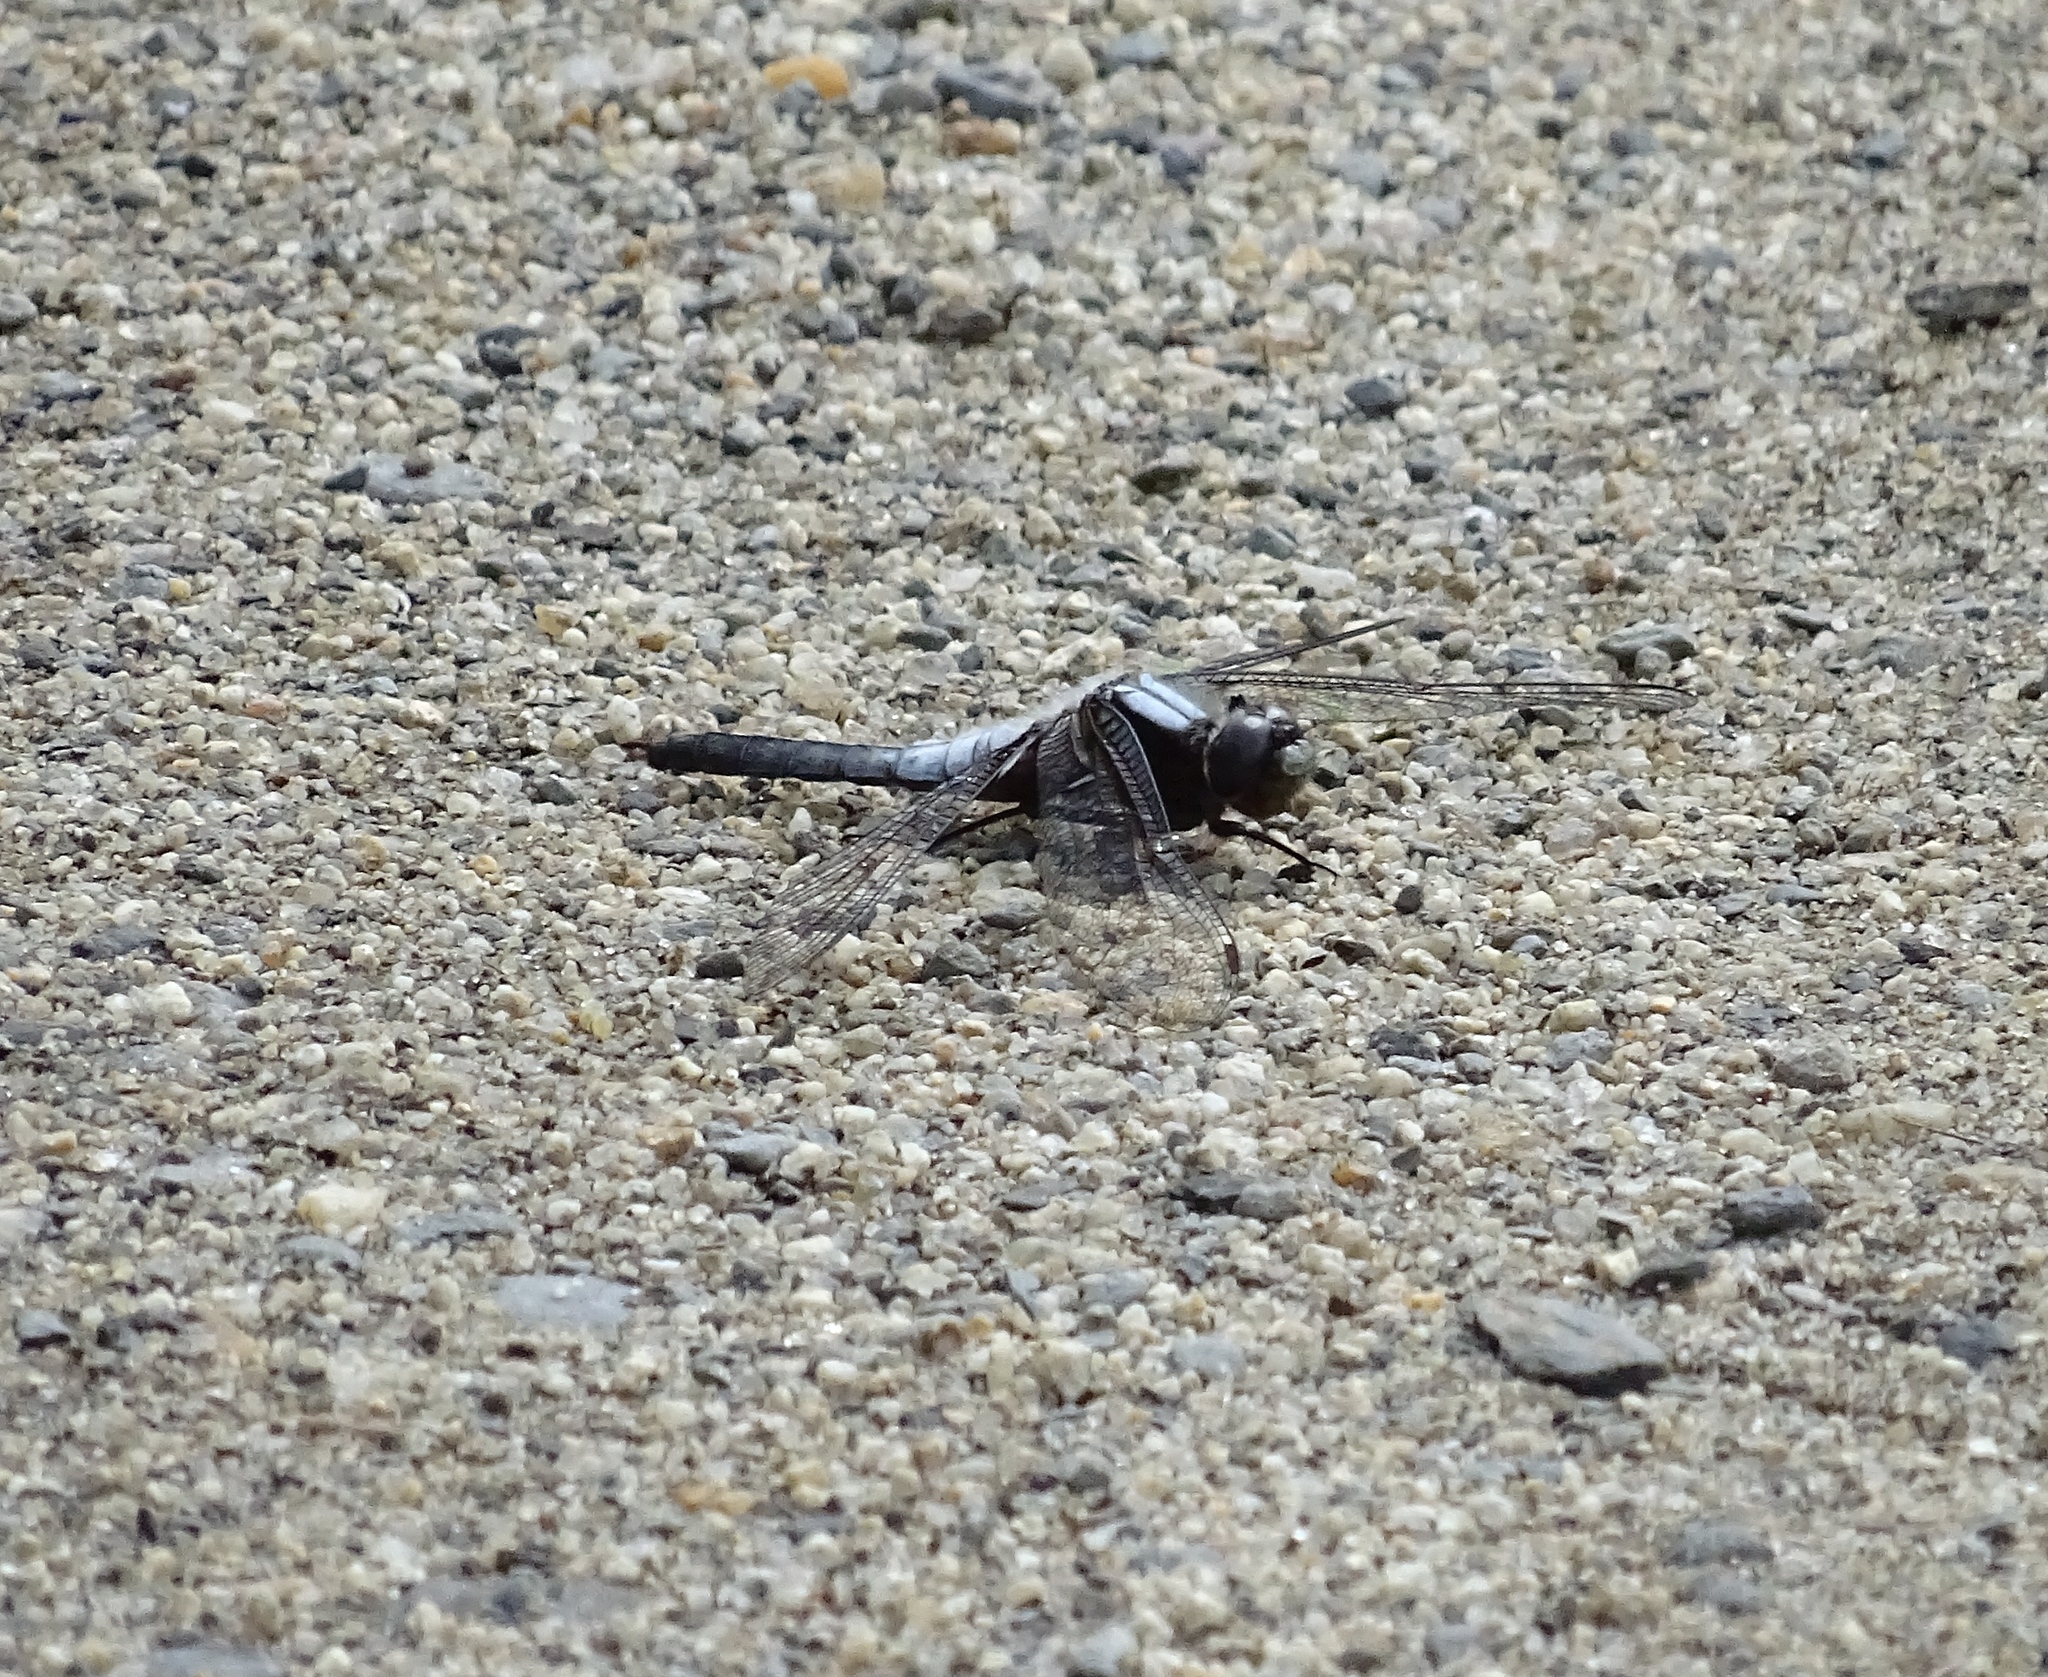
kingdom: Animalia
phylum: Arthropoda
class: Insecta
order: Odonata
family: Libellulidae
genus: Ladona
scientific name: Ladona julia
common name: Chalk-fronted corporal
